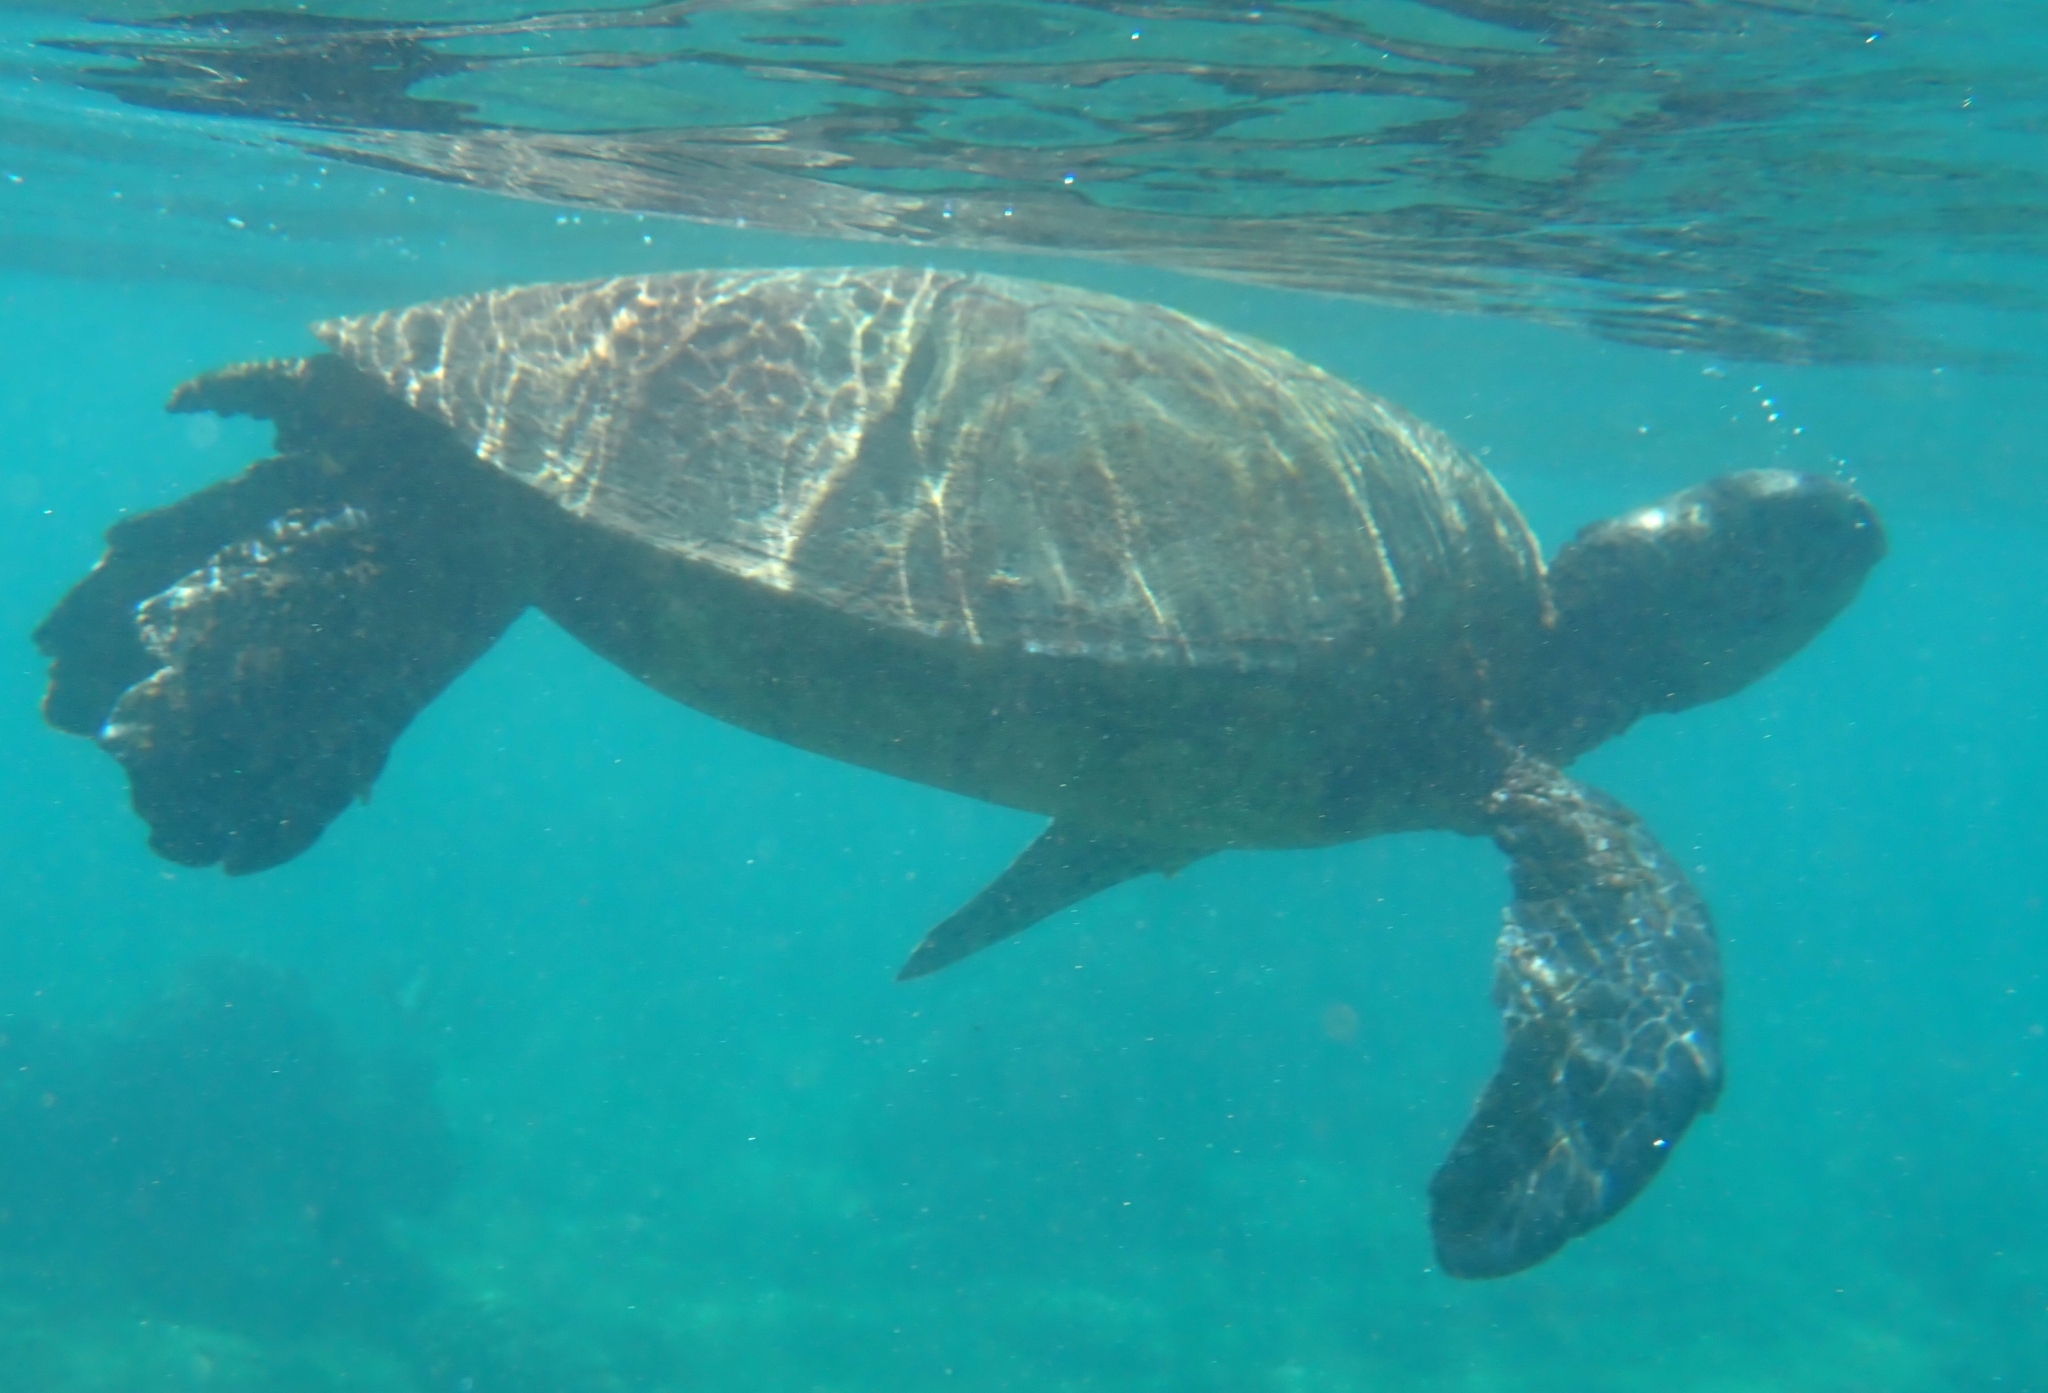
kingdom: Animalia
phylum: Chordata
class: Testudines
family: Cheloniidae
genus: Chelonia
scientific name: Chelonia mydas
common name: Green turtle
